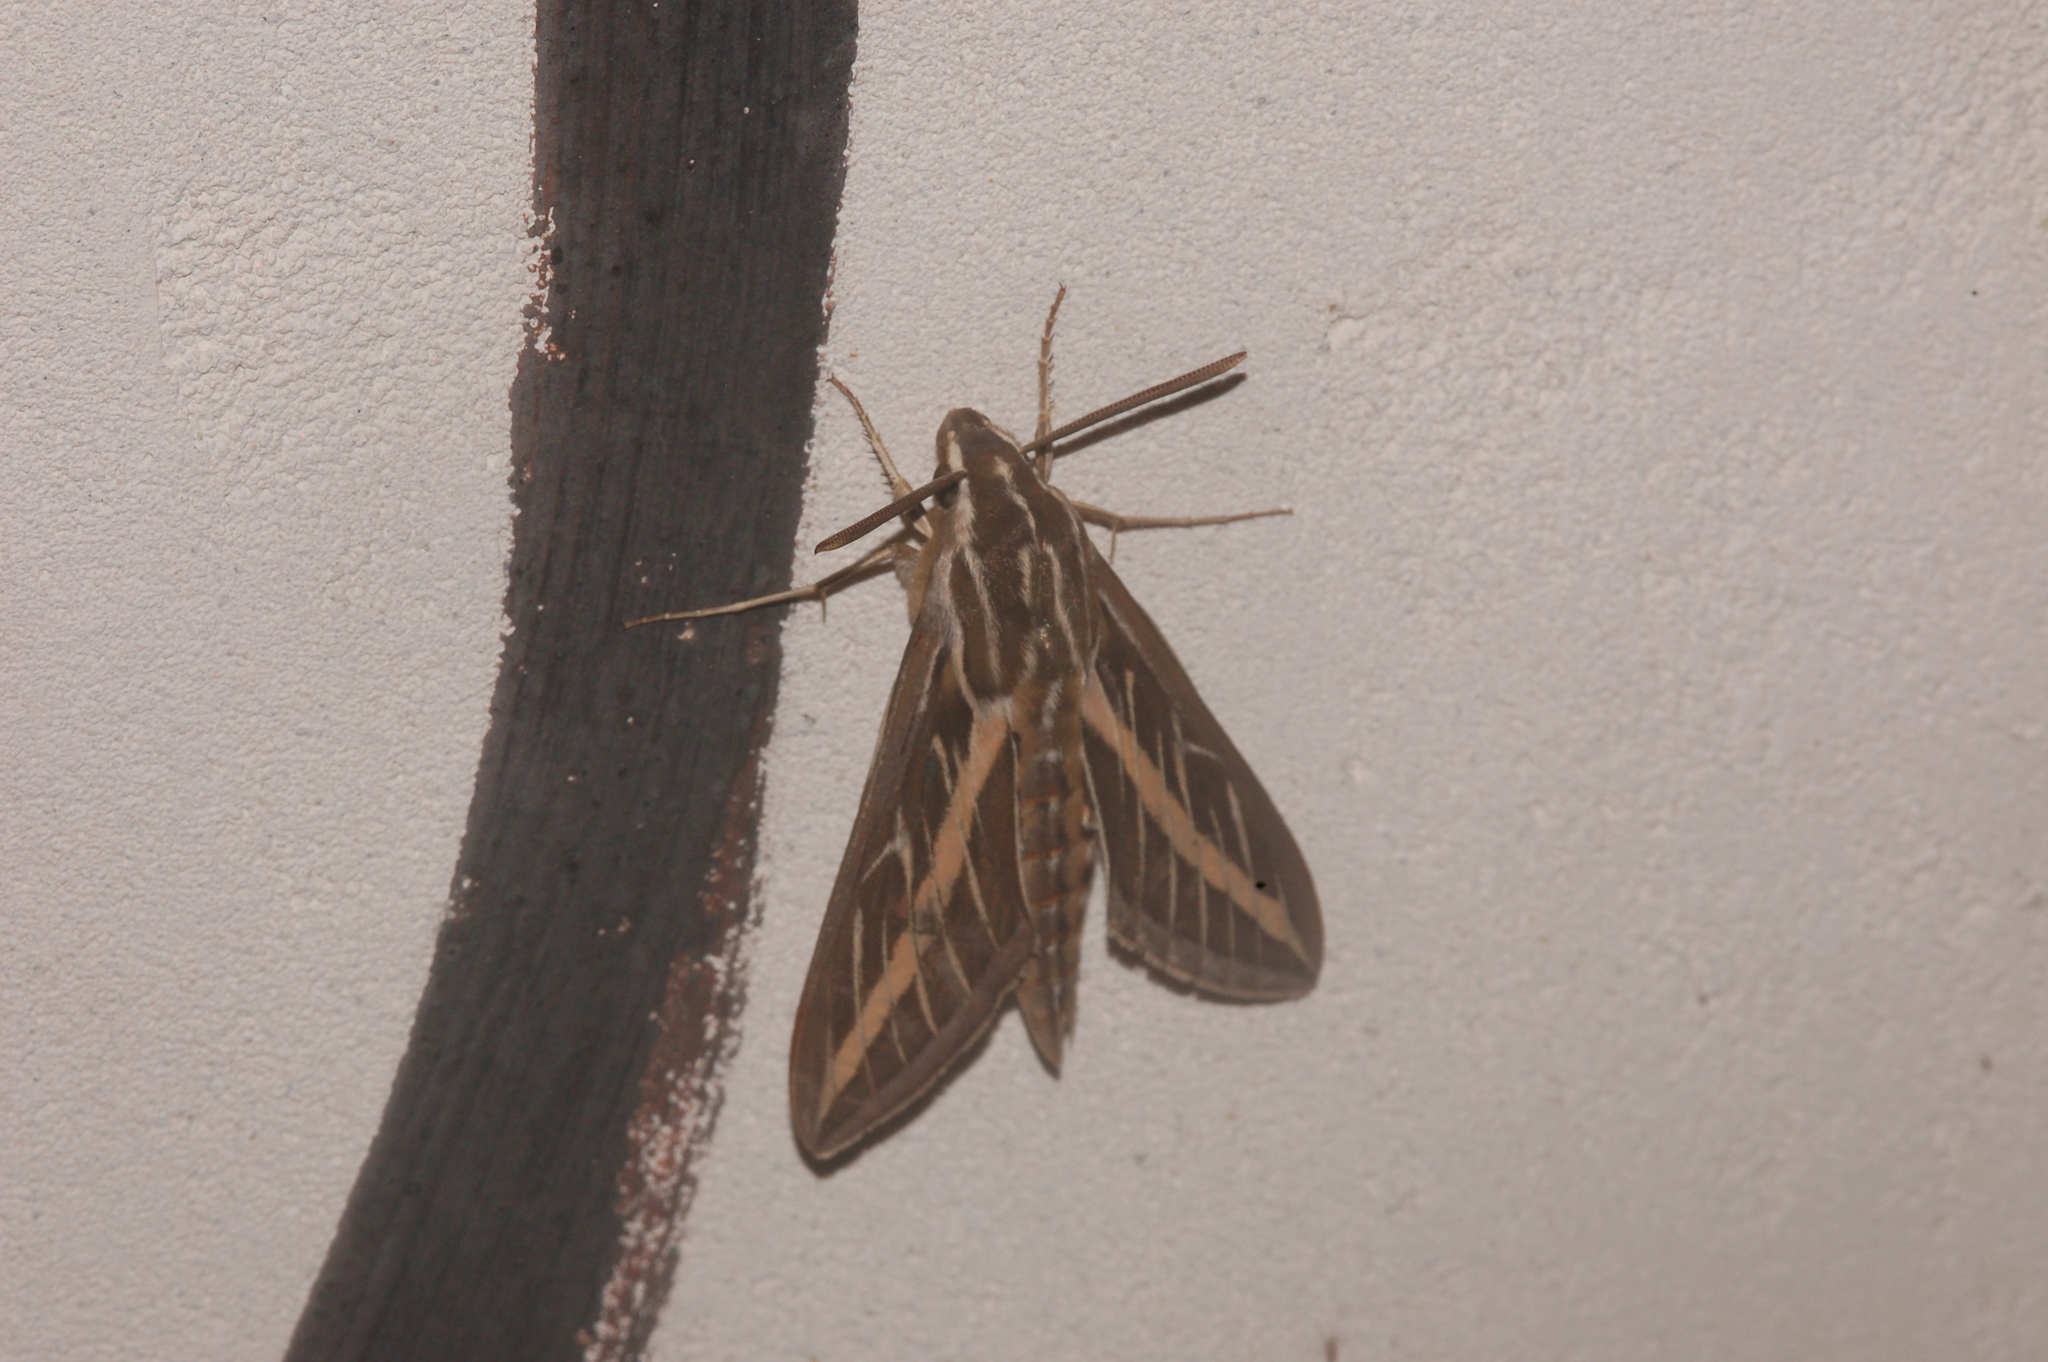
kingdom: Animalia
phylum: Arthropoda
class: Insecta
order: Lepidoptera
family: Sphingidae
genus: Hyles
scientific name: Hyles lineata
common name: White-lined sphinx
